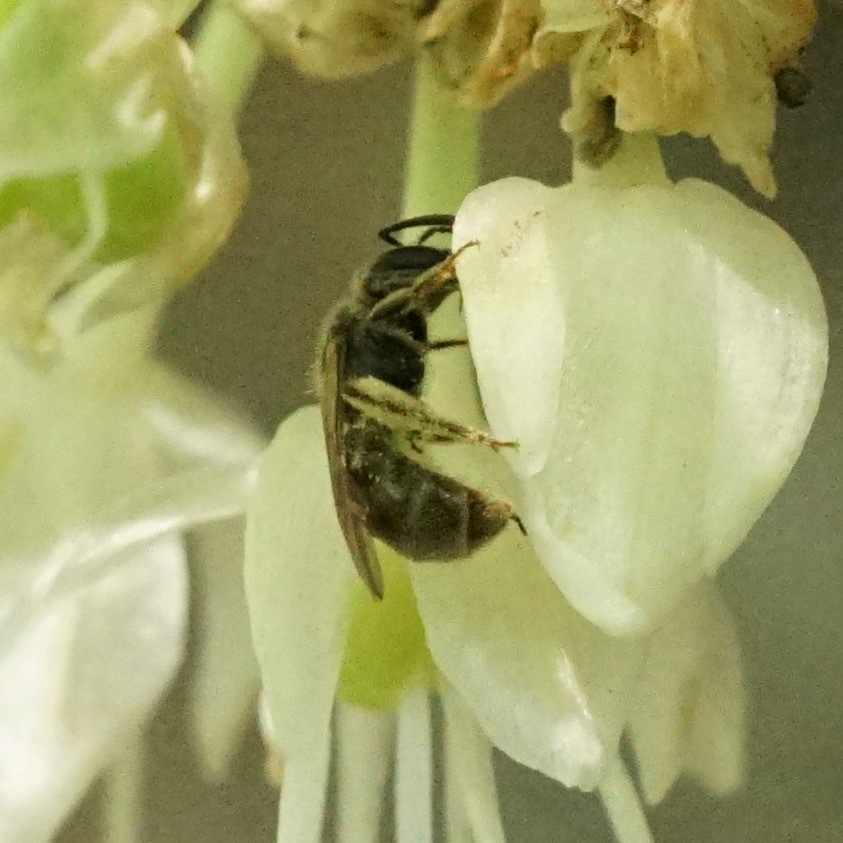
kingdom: Animalia
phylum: Arthropoda
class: Insecta
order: Hymenoptera
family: Halictidae
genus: Dialictus
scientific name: Dialictus
